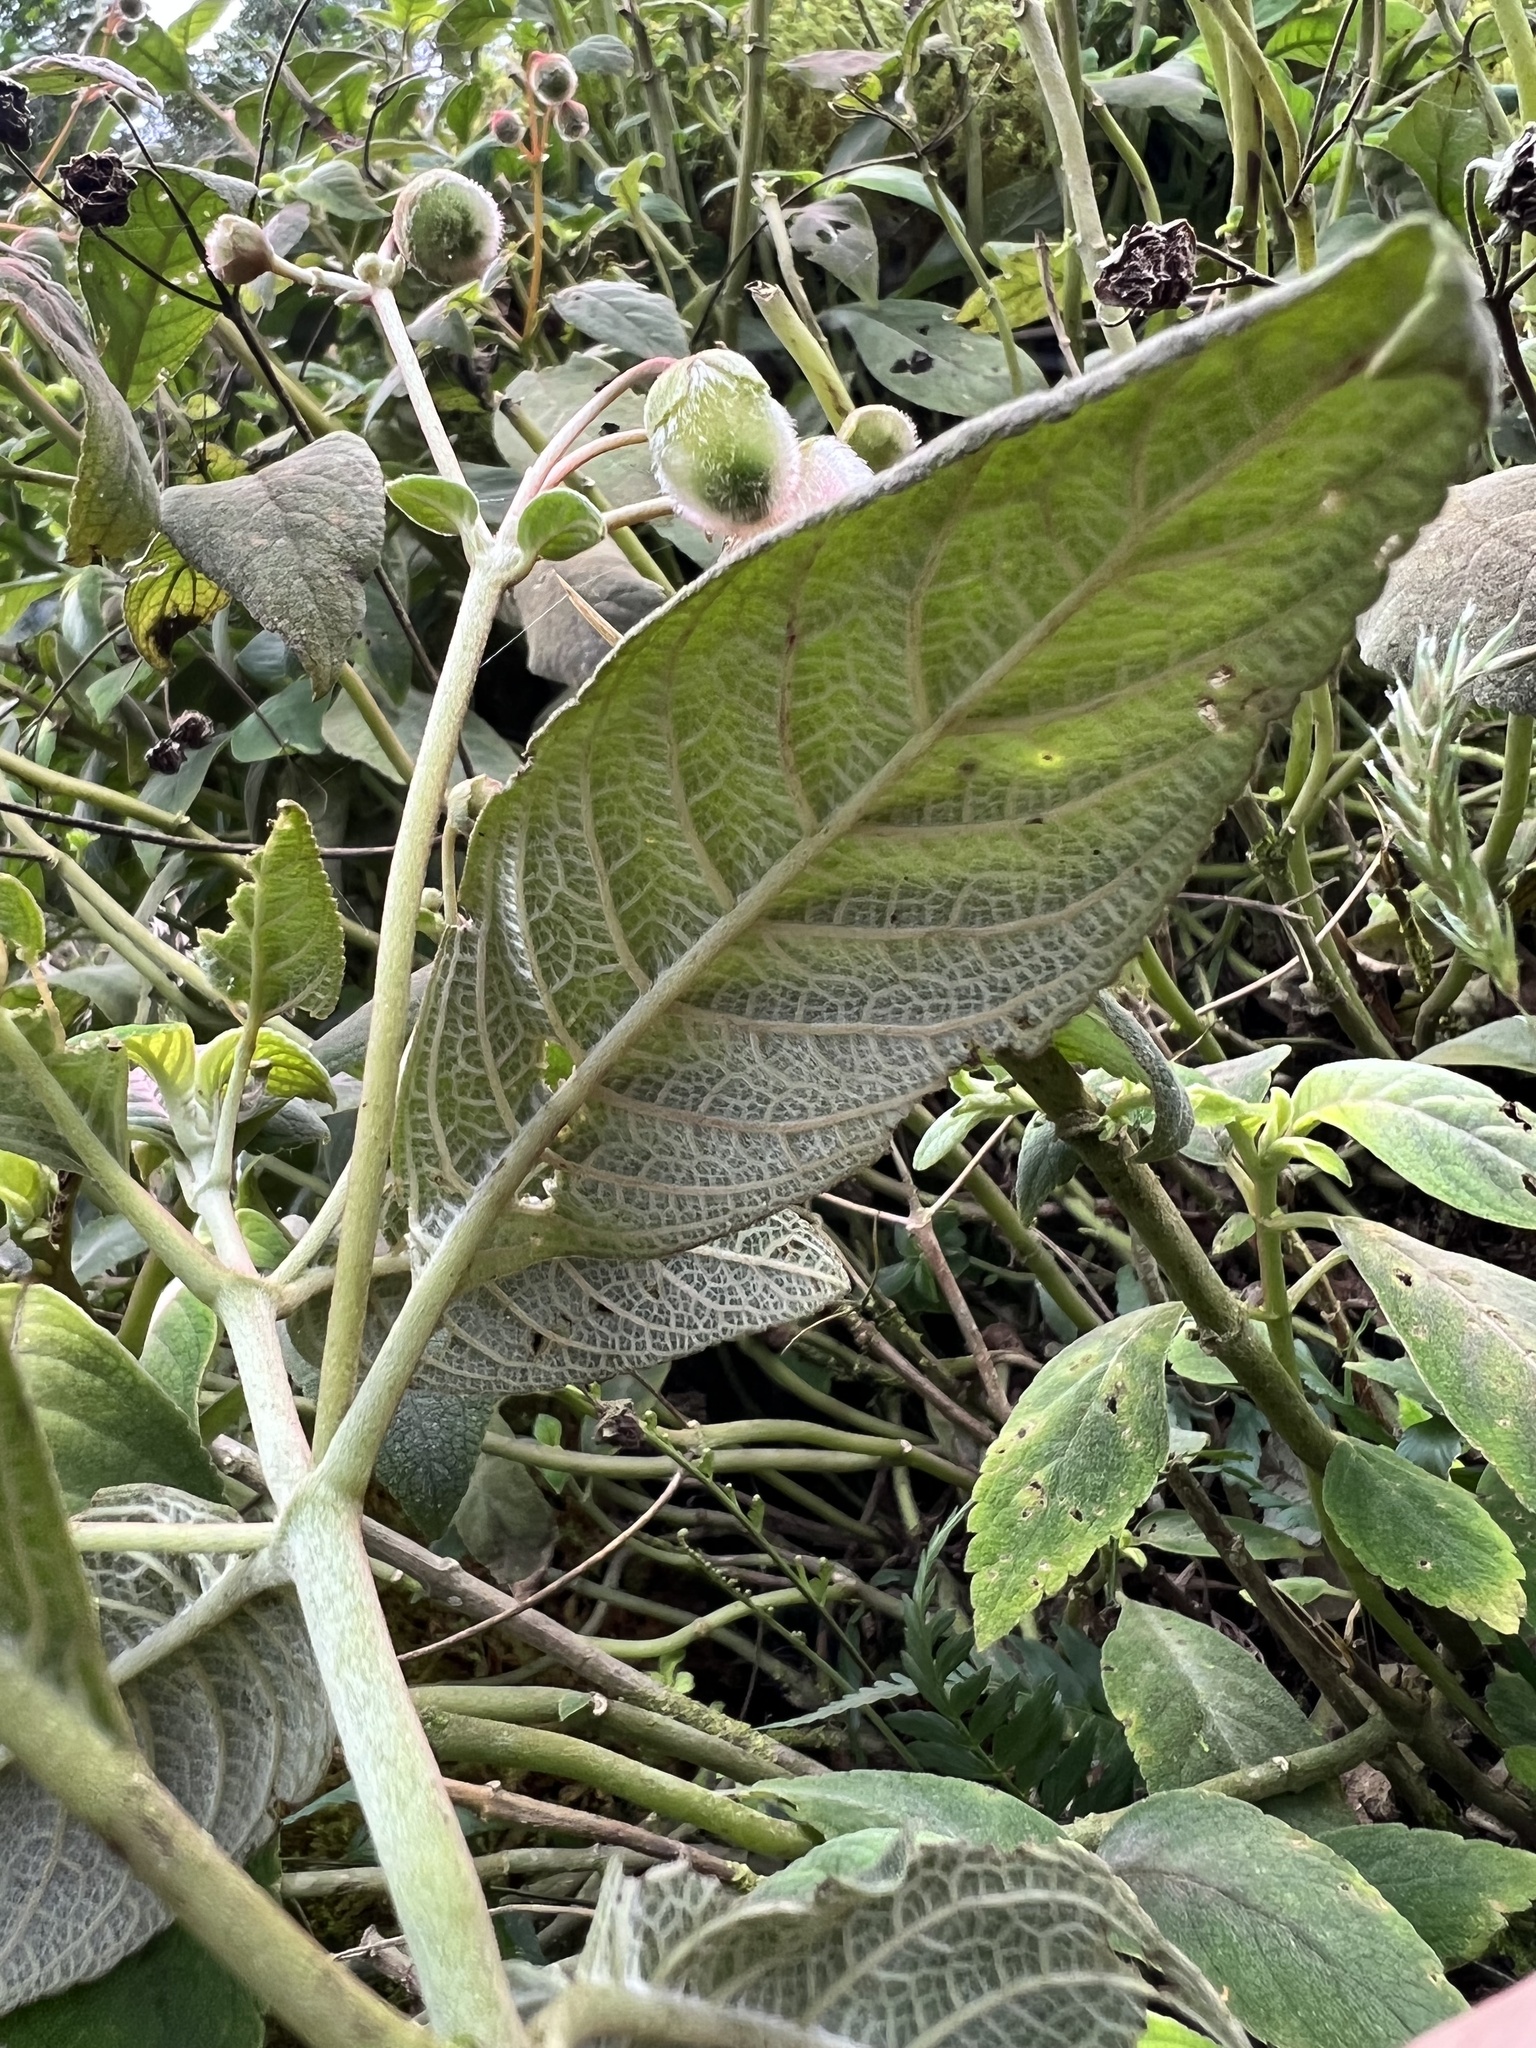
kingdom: Plantae
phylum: Tracheophyta
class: Magnoliopsida
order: Lamiales
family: Gesneriaceae
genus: Kohleria
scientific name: Kohleria affinis
